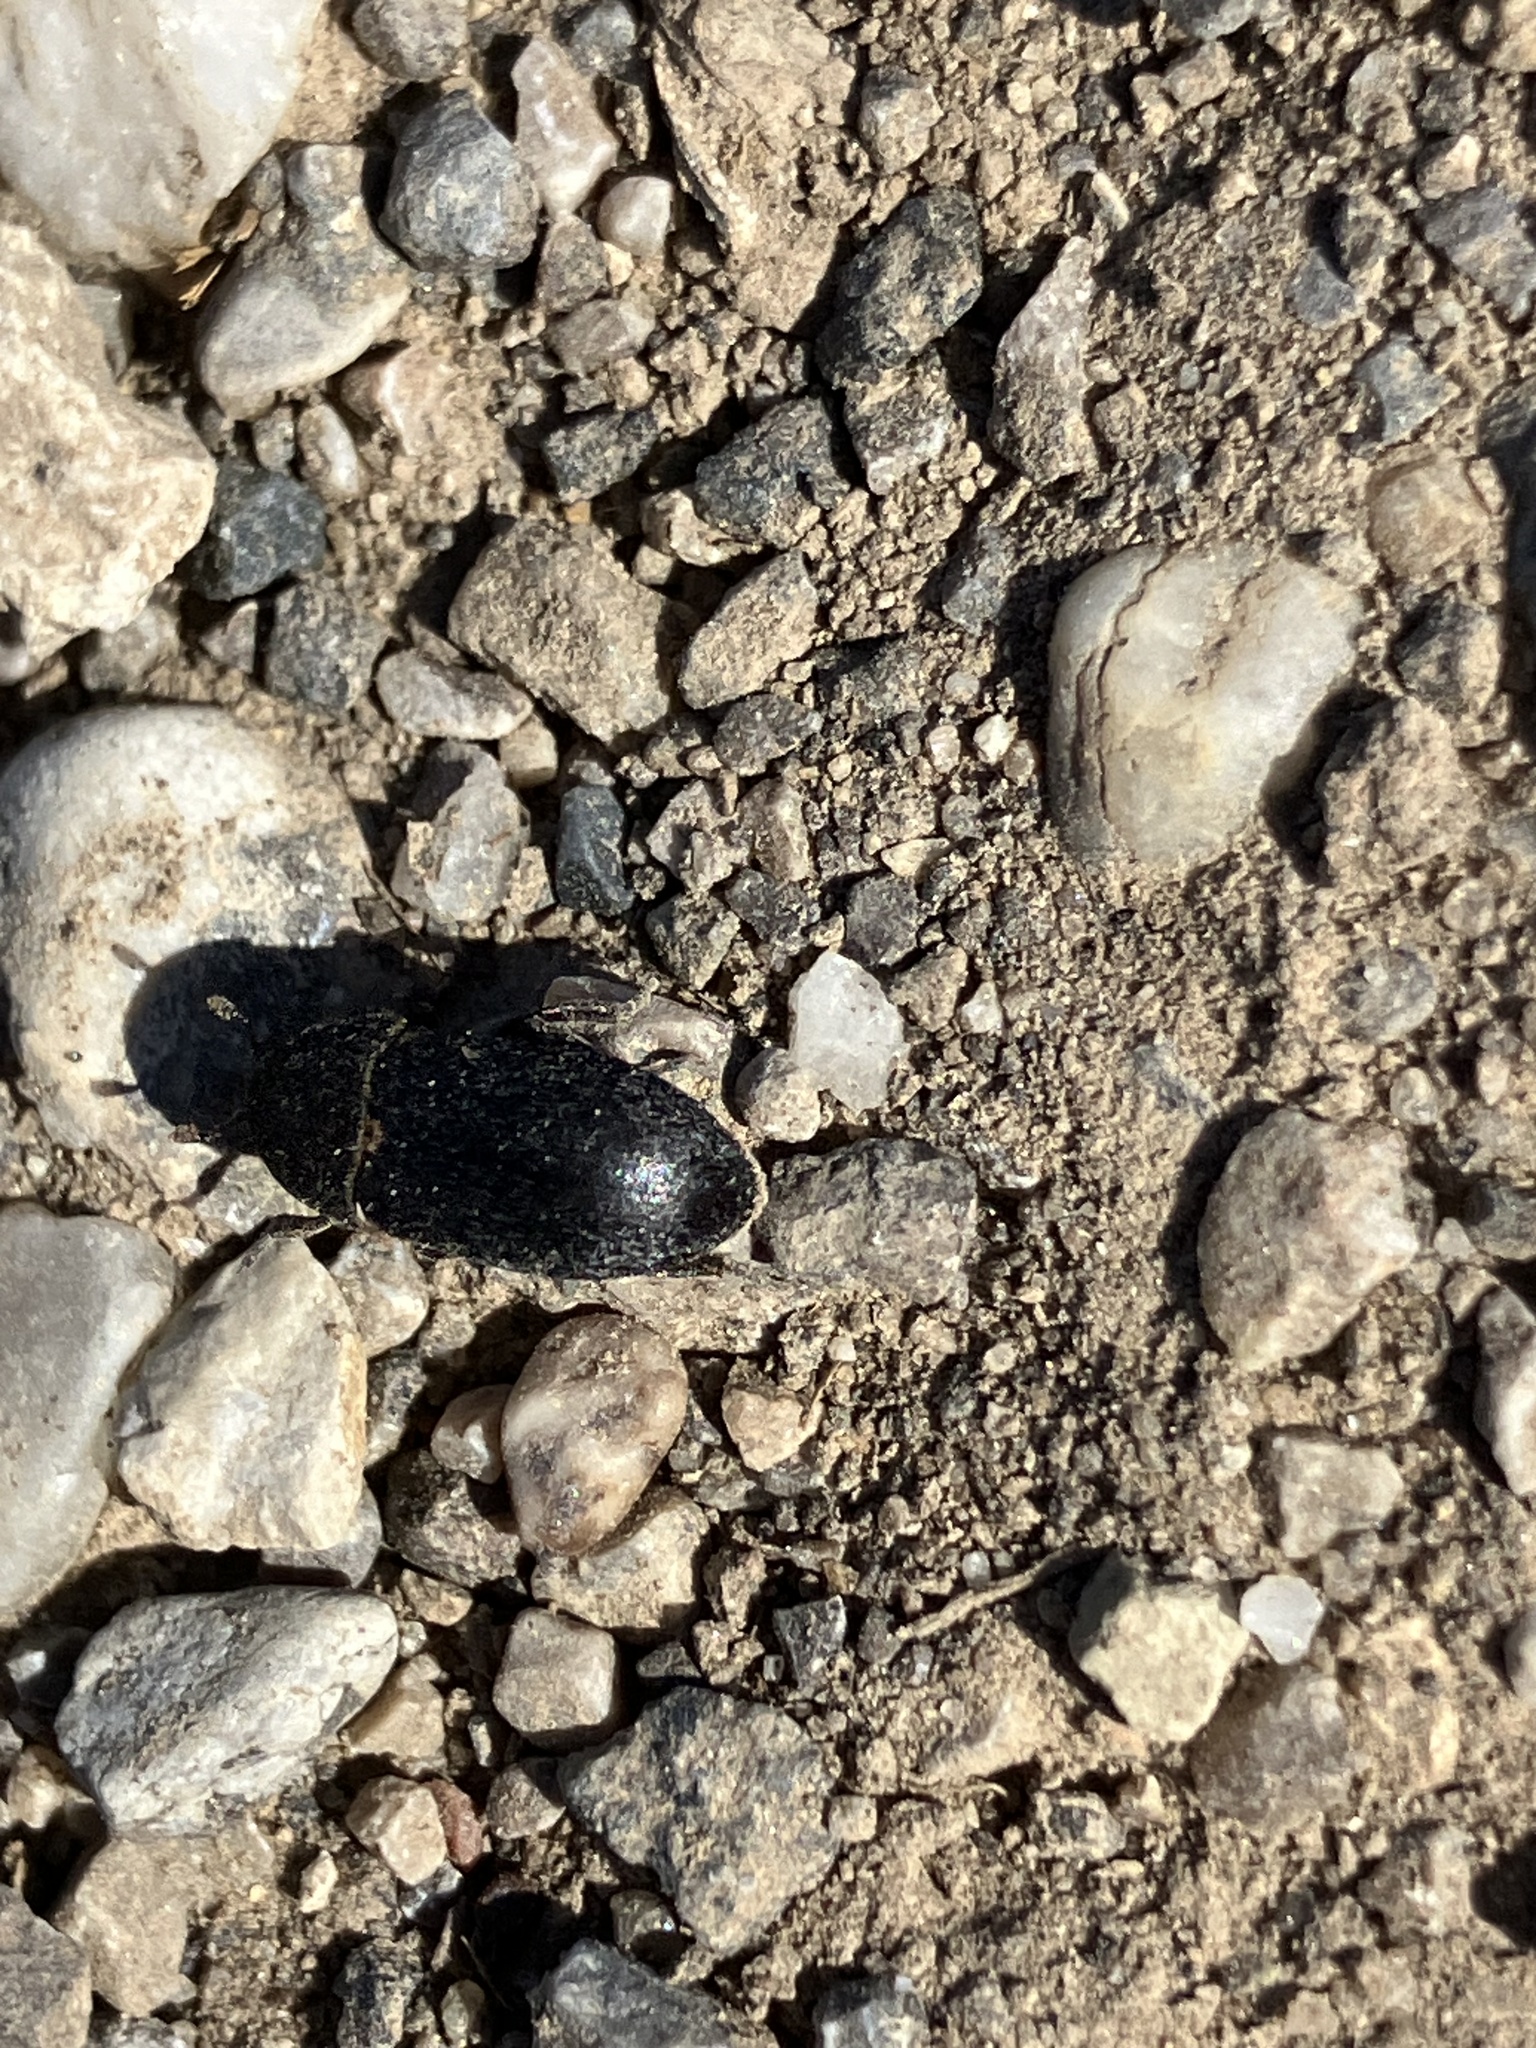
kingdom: Animalia
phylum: Arthropoda
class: Insecta
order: Coleoptera
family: Dermestidae
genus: Dermestes
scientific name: Dermestes laniarius
